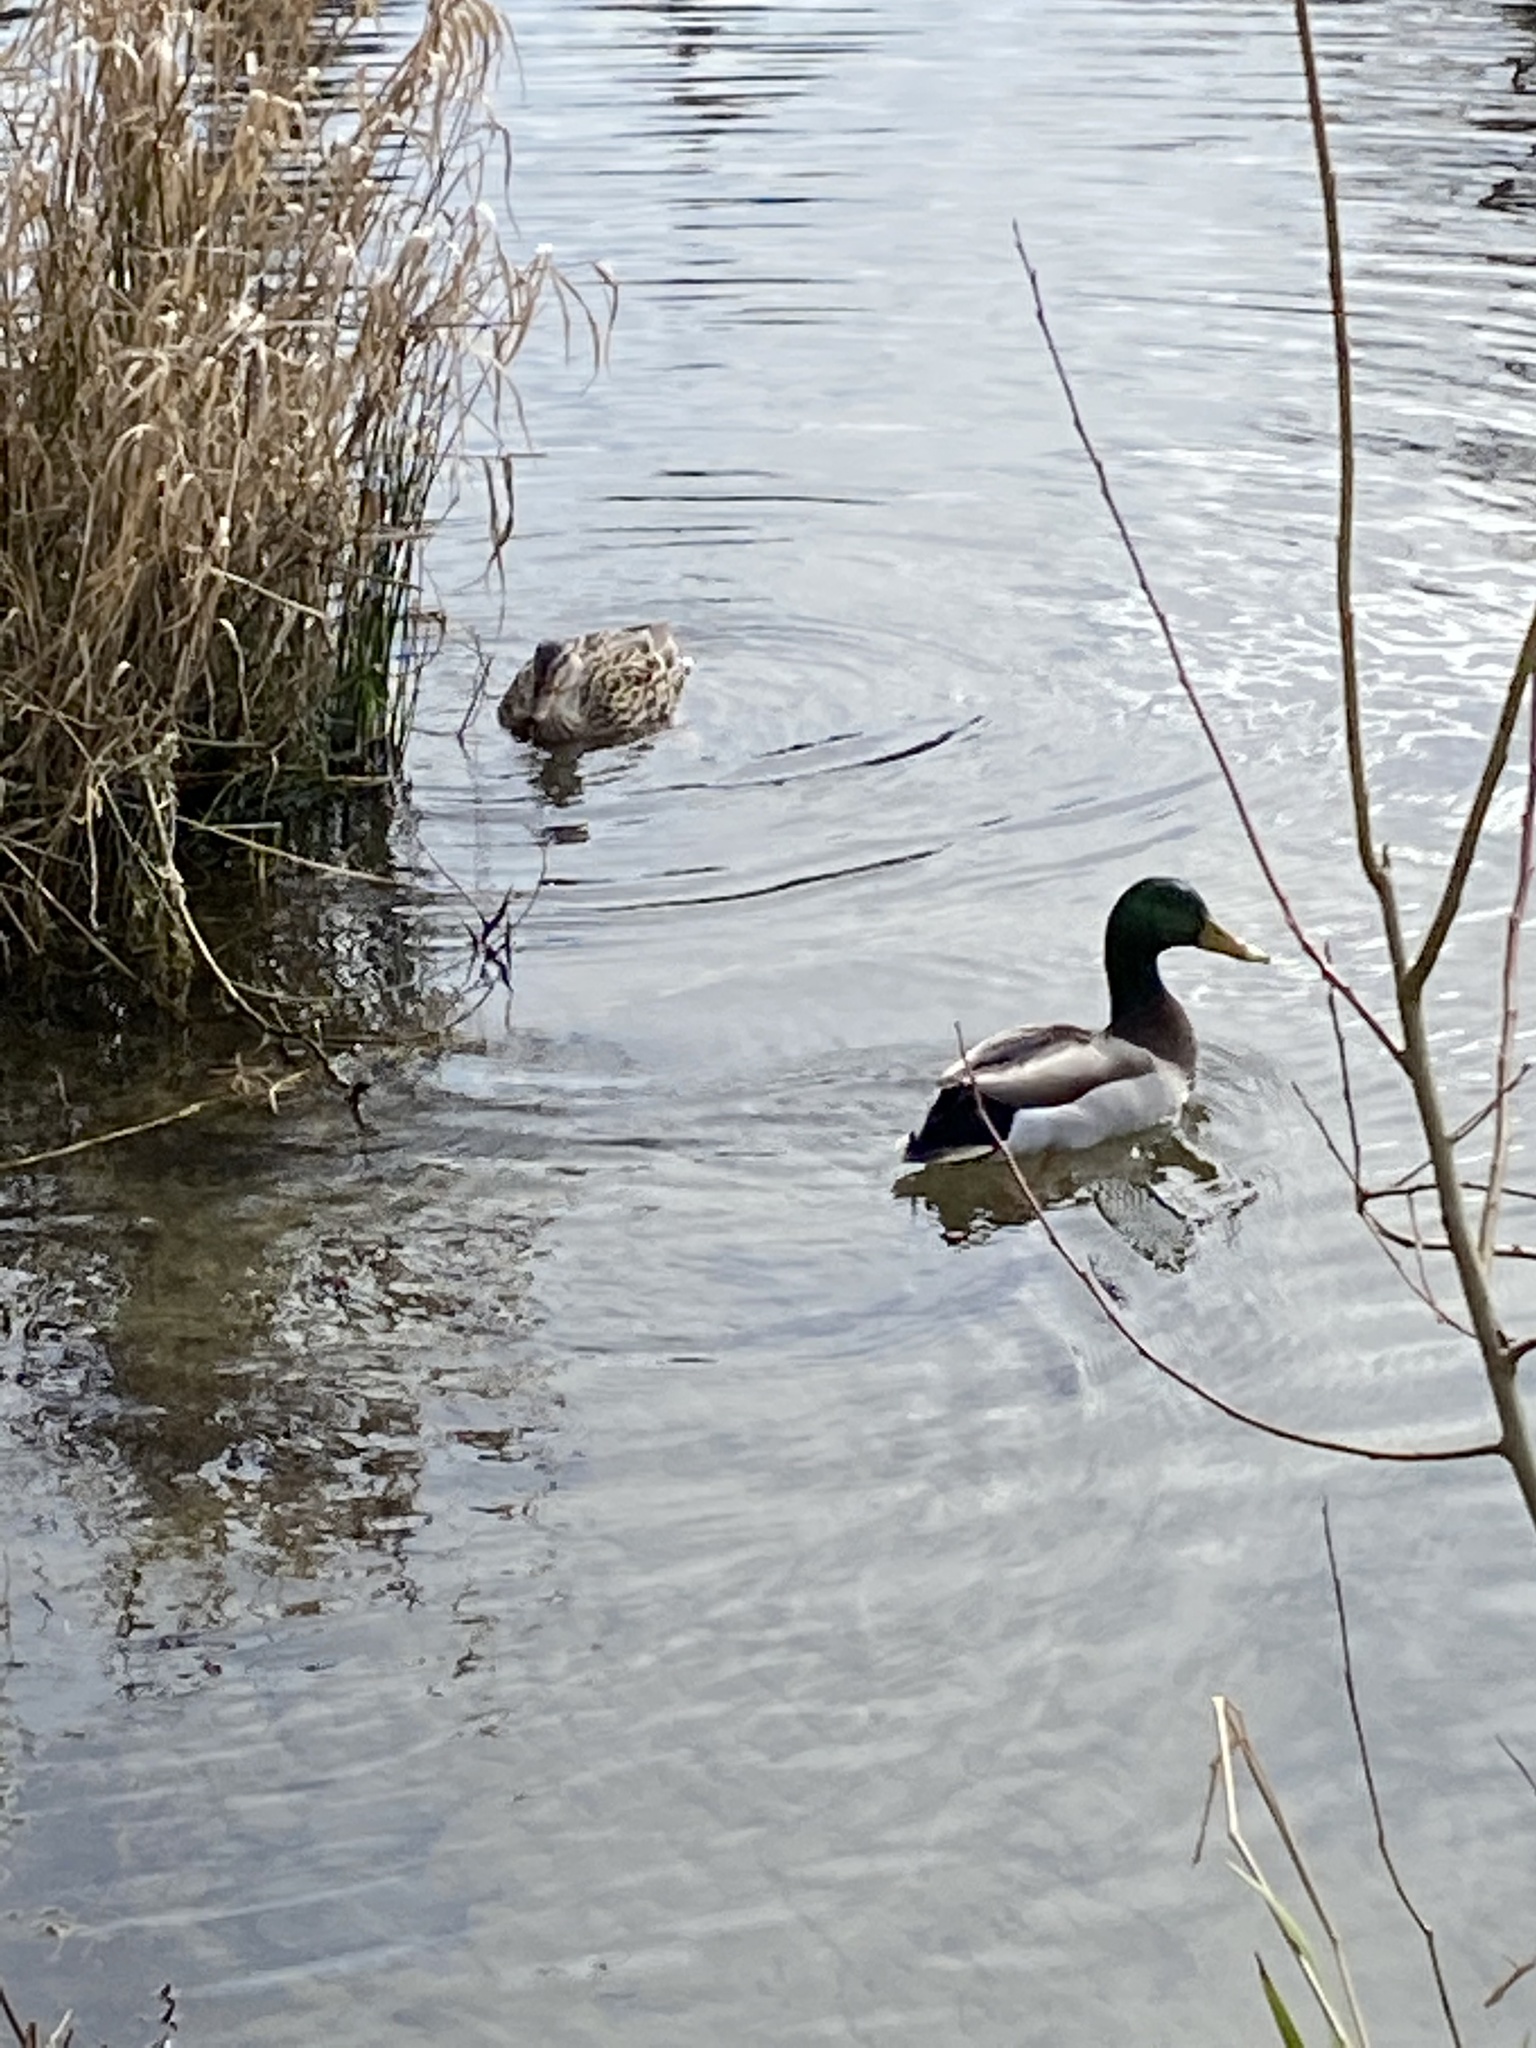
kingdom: Animalia
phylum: Chordata
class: Aves
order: Anseriformes
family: Anatidae
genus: Anas
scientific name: Anas platyrhynchos
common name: Mallard
